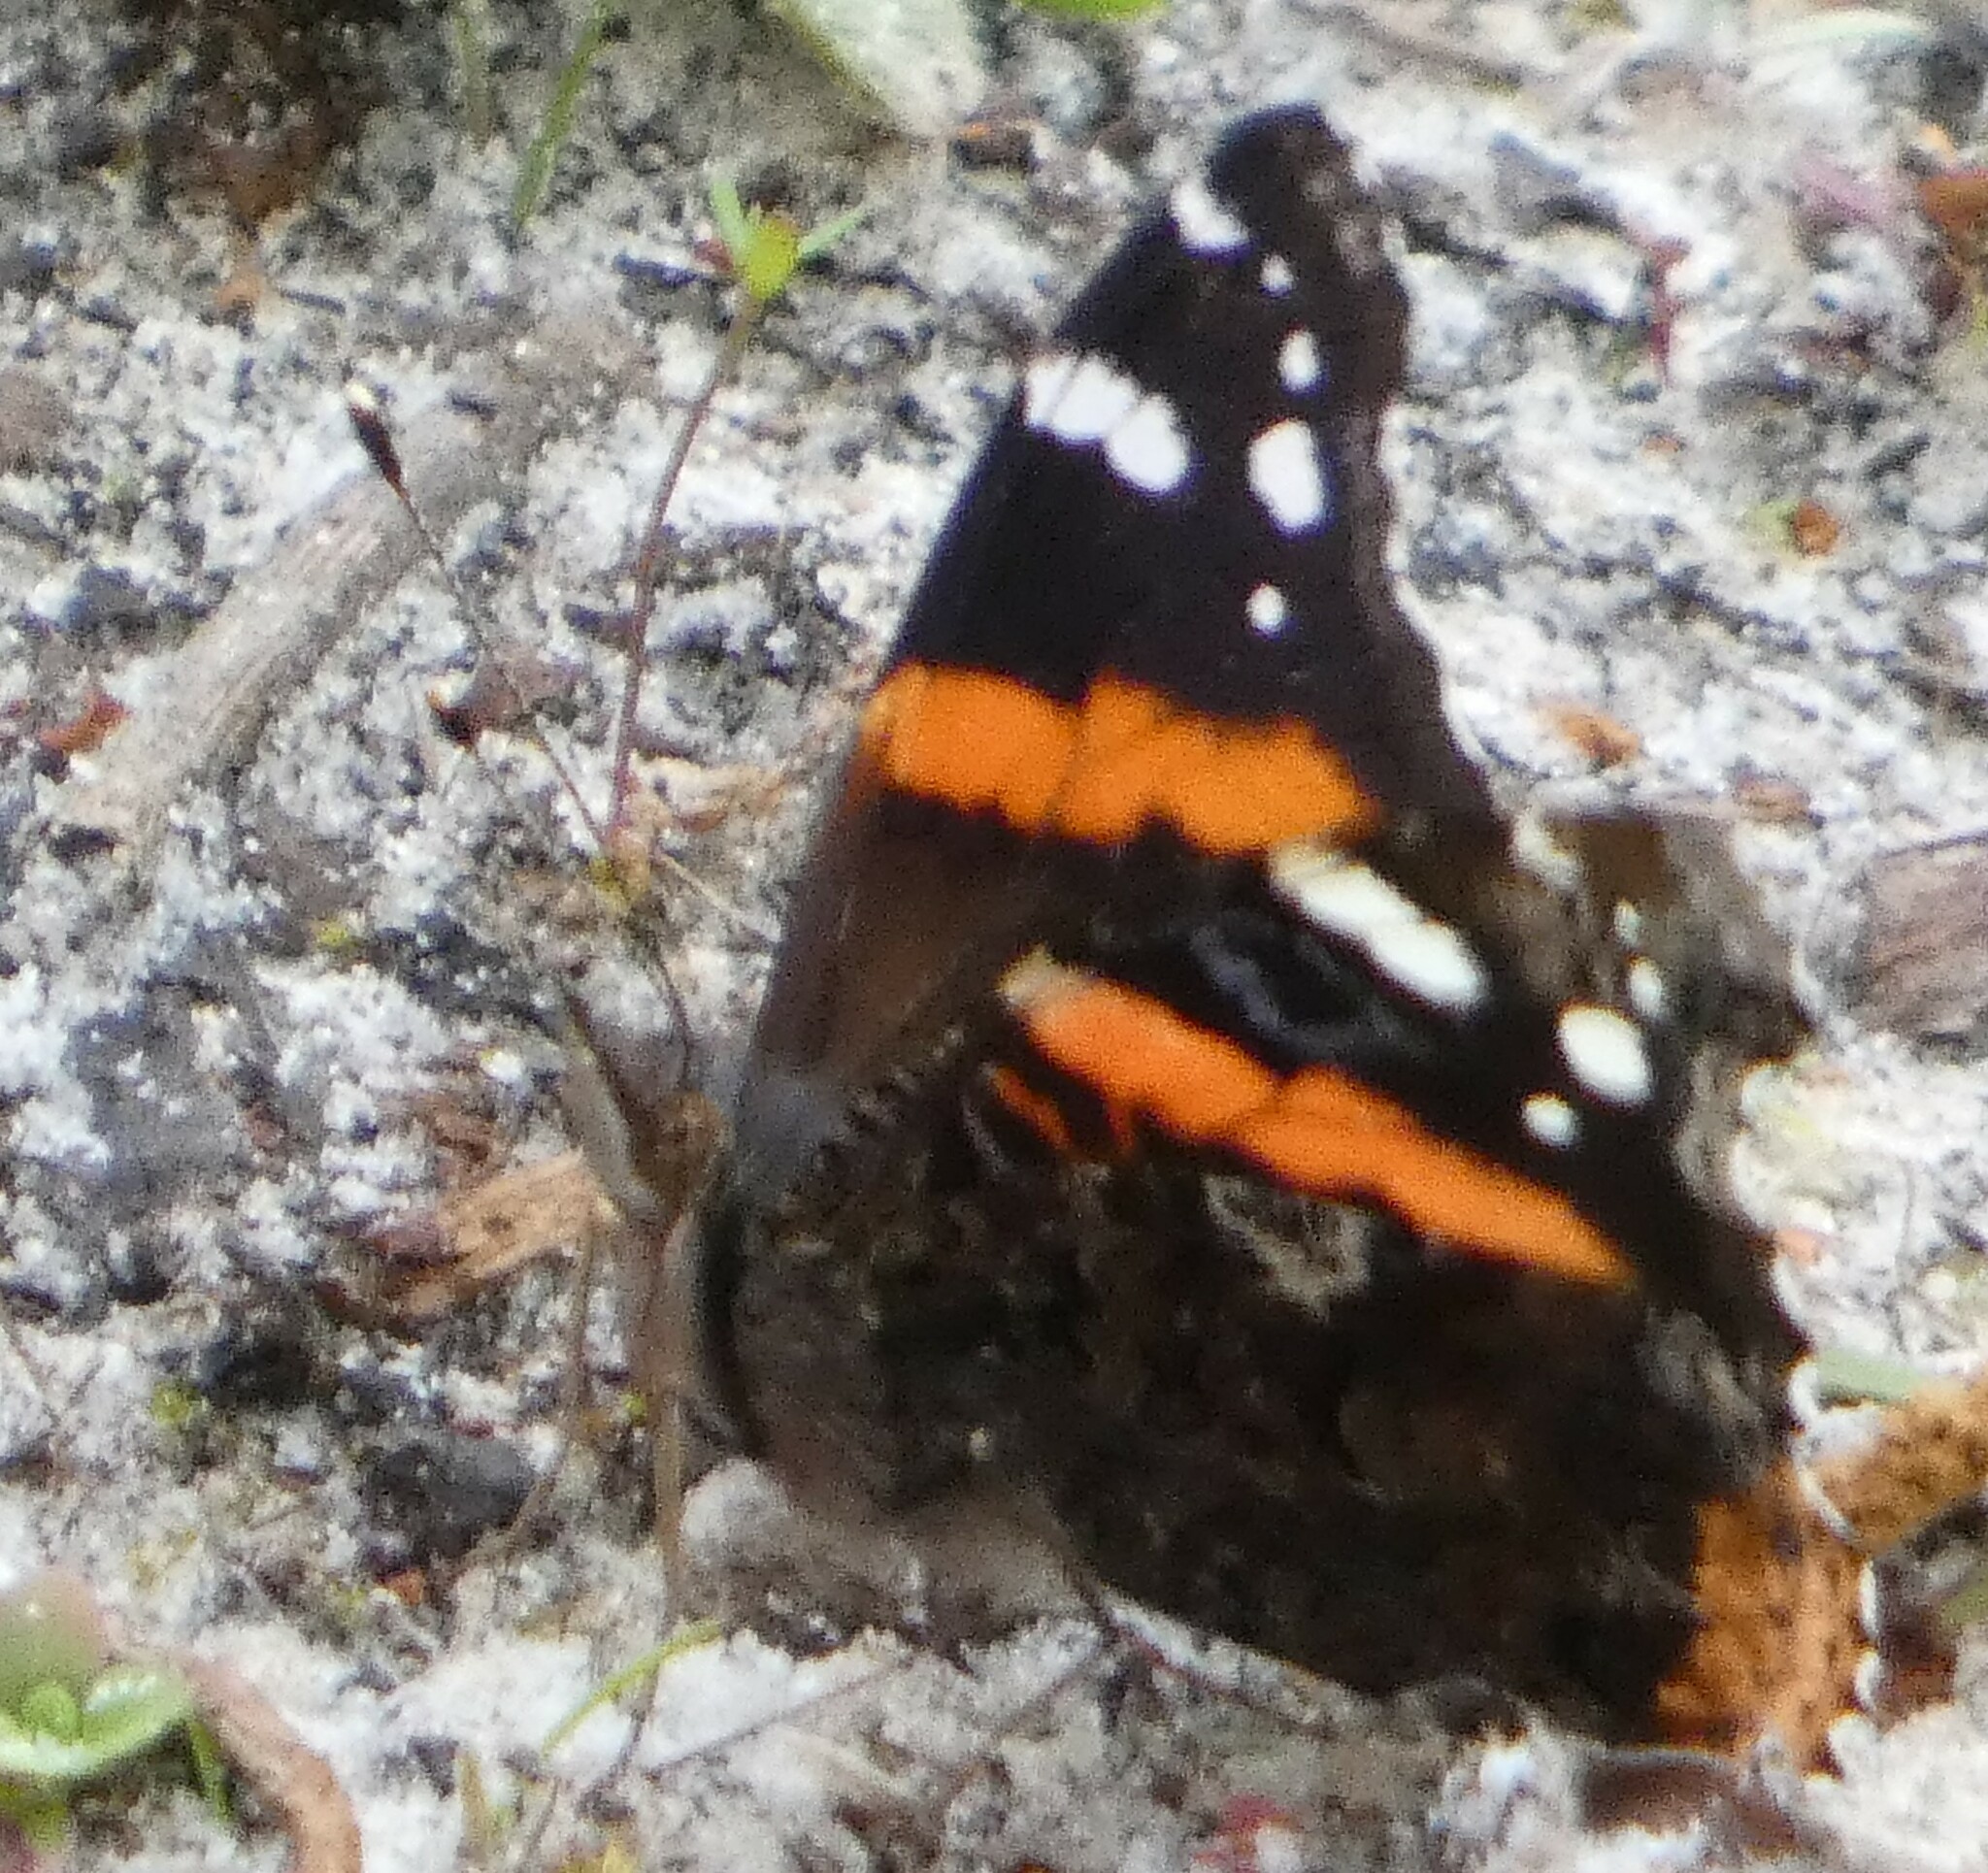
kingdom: Animalia
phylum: Arthropoda
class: Insecta
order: Lepidoptera
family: Nymphalidae
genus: Vanessa
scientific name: Vanessa atalanta
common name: Red admiral
